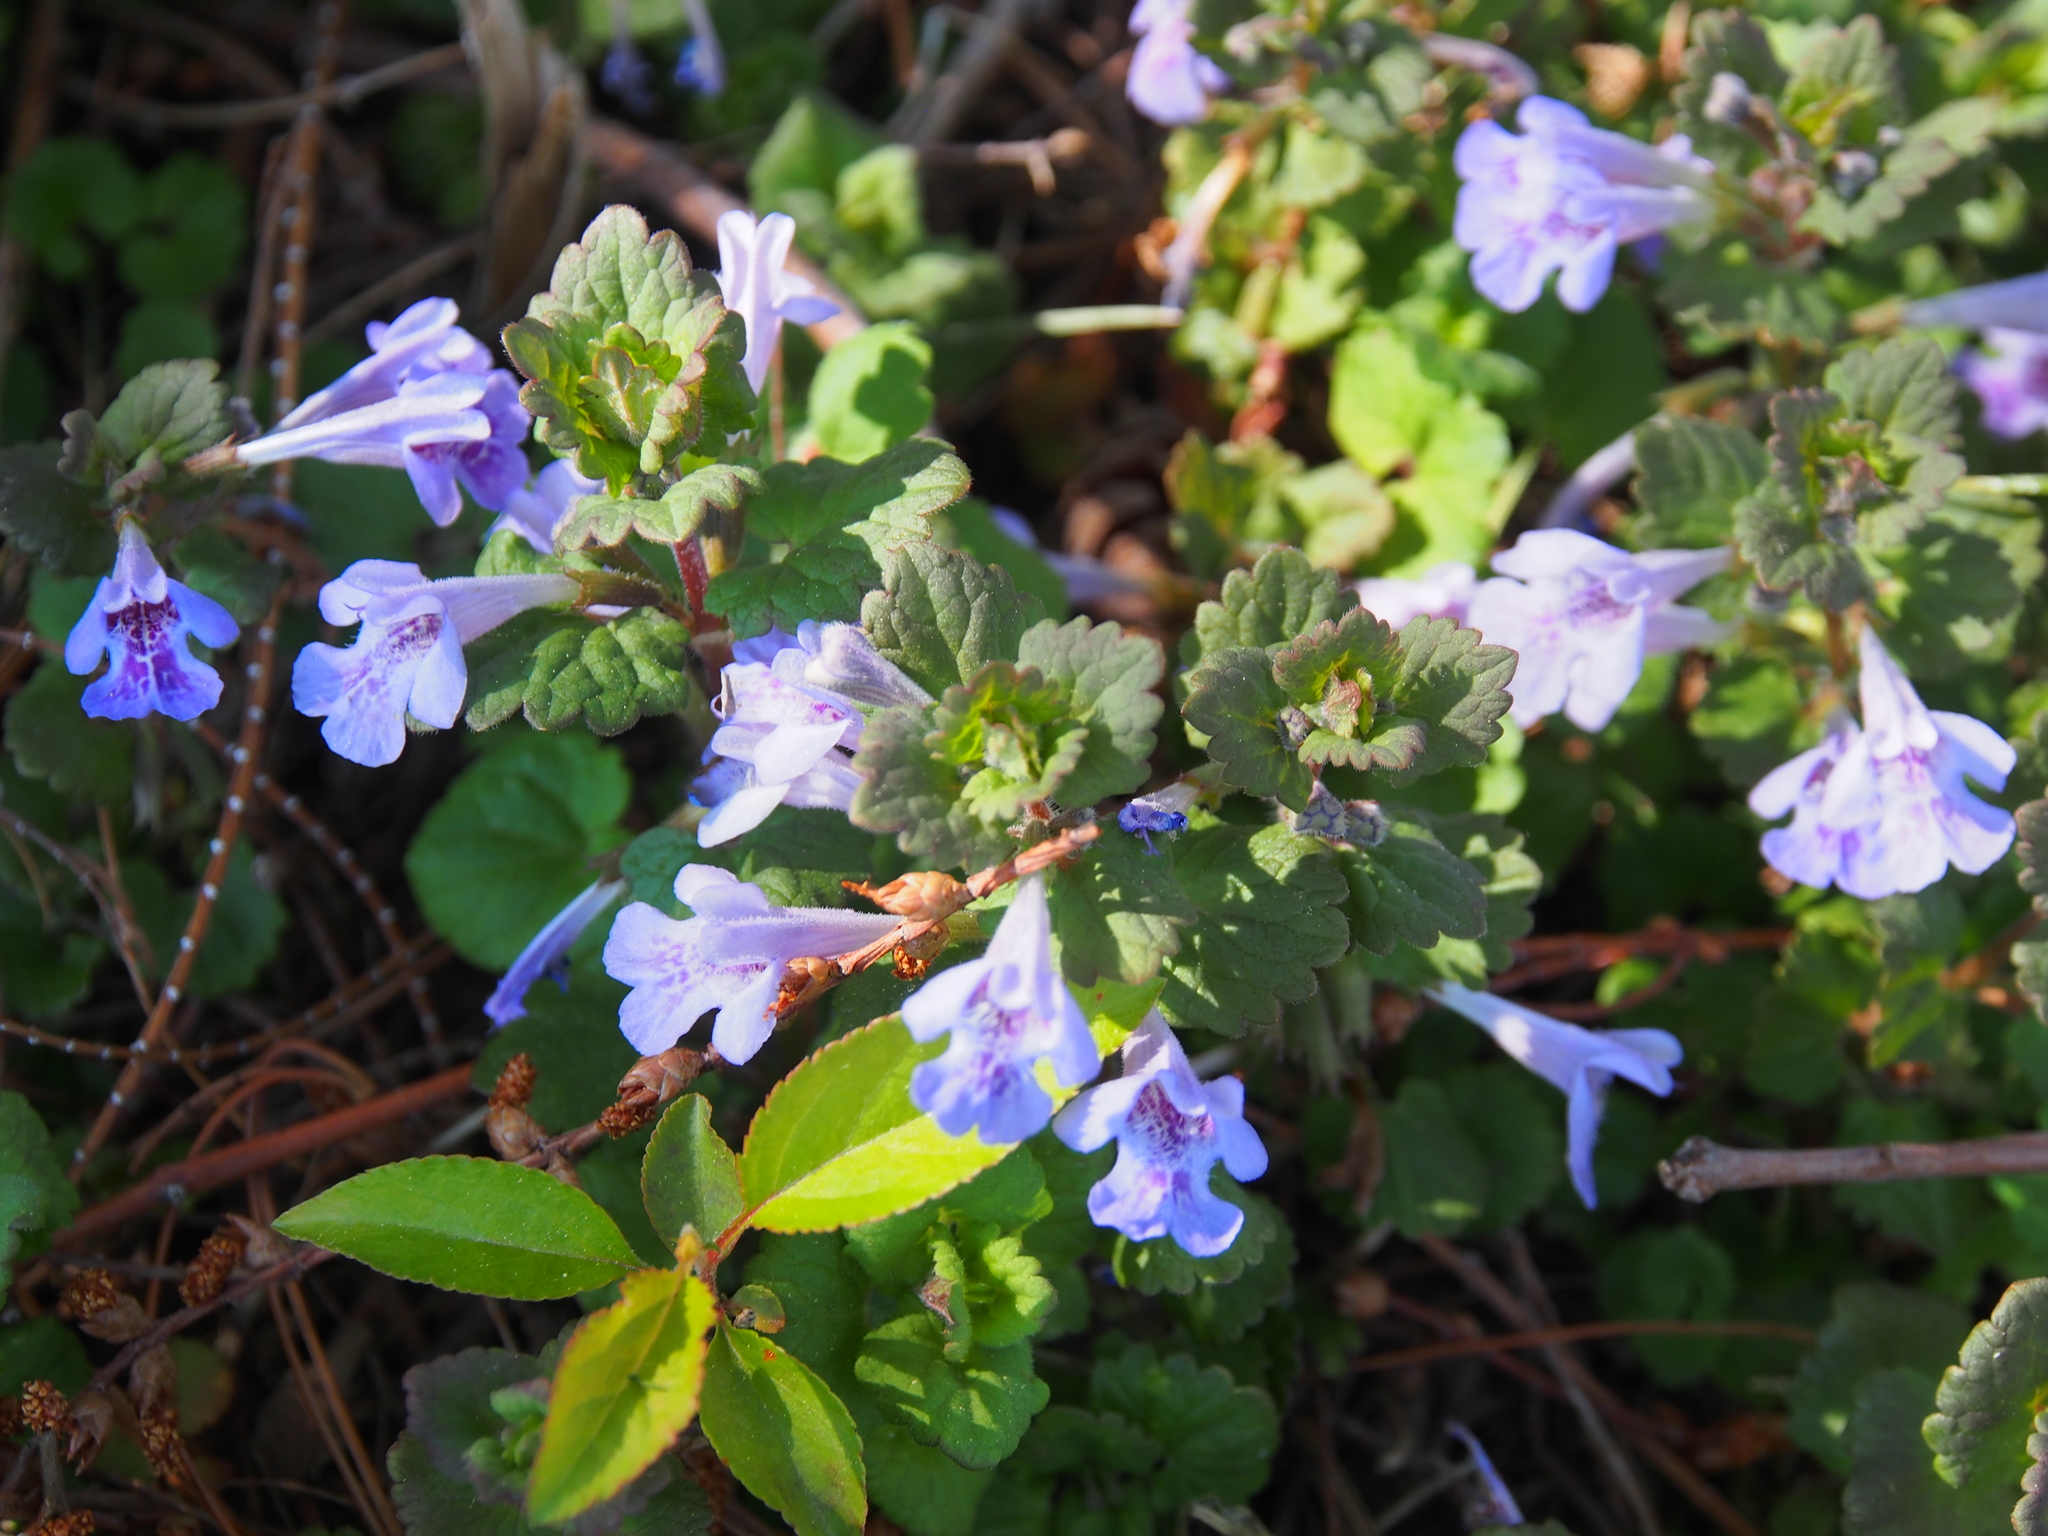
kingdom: Plantae
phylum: Tracheophyta
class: Magnoliopsida
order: Lamiales
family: Lamiaceae
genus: Glechoma
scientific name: Glechoma hederacea
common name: Ground ivy
